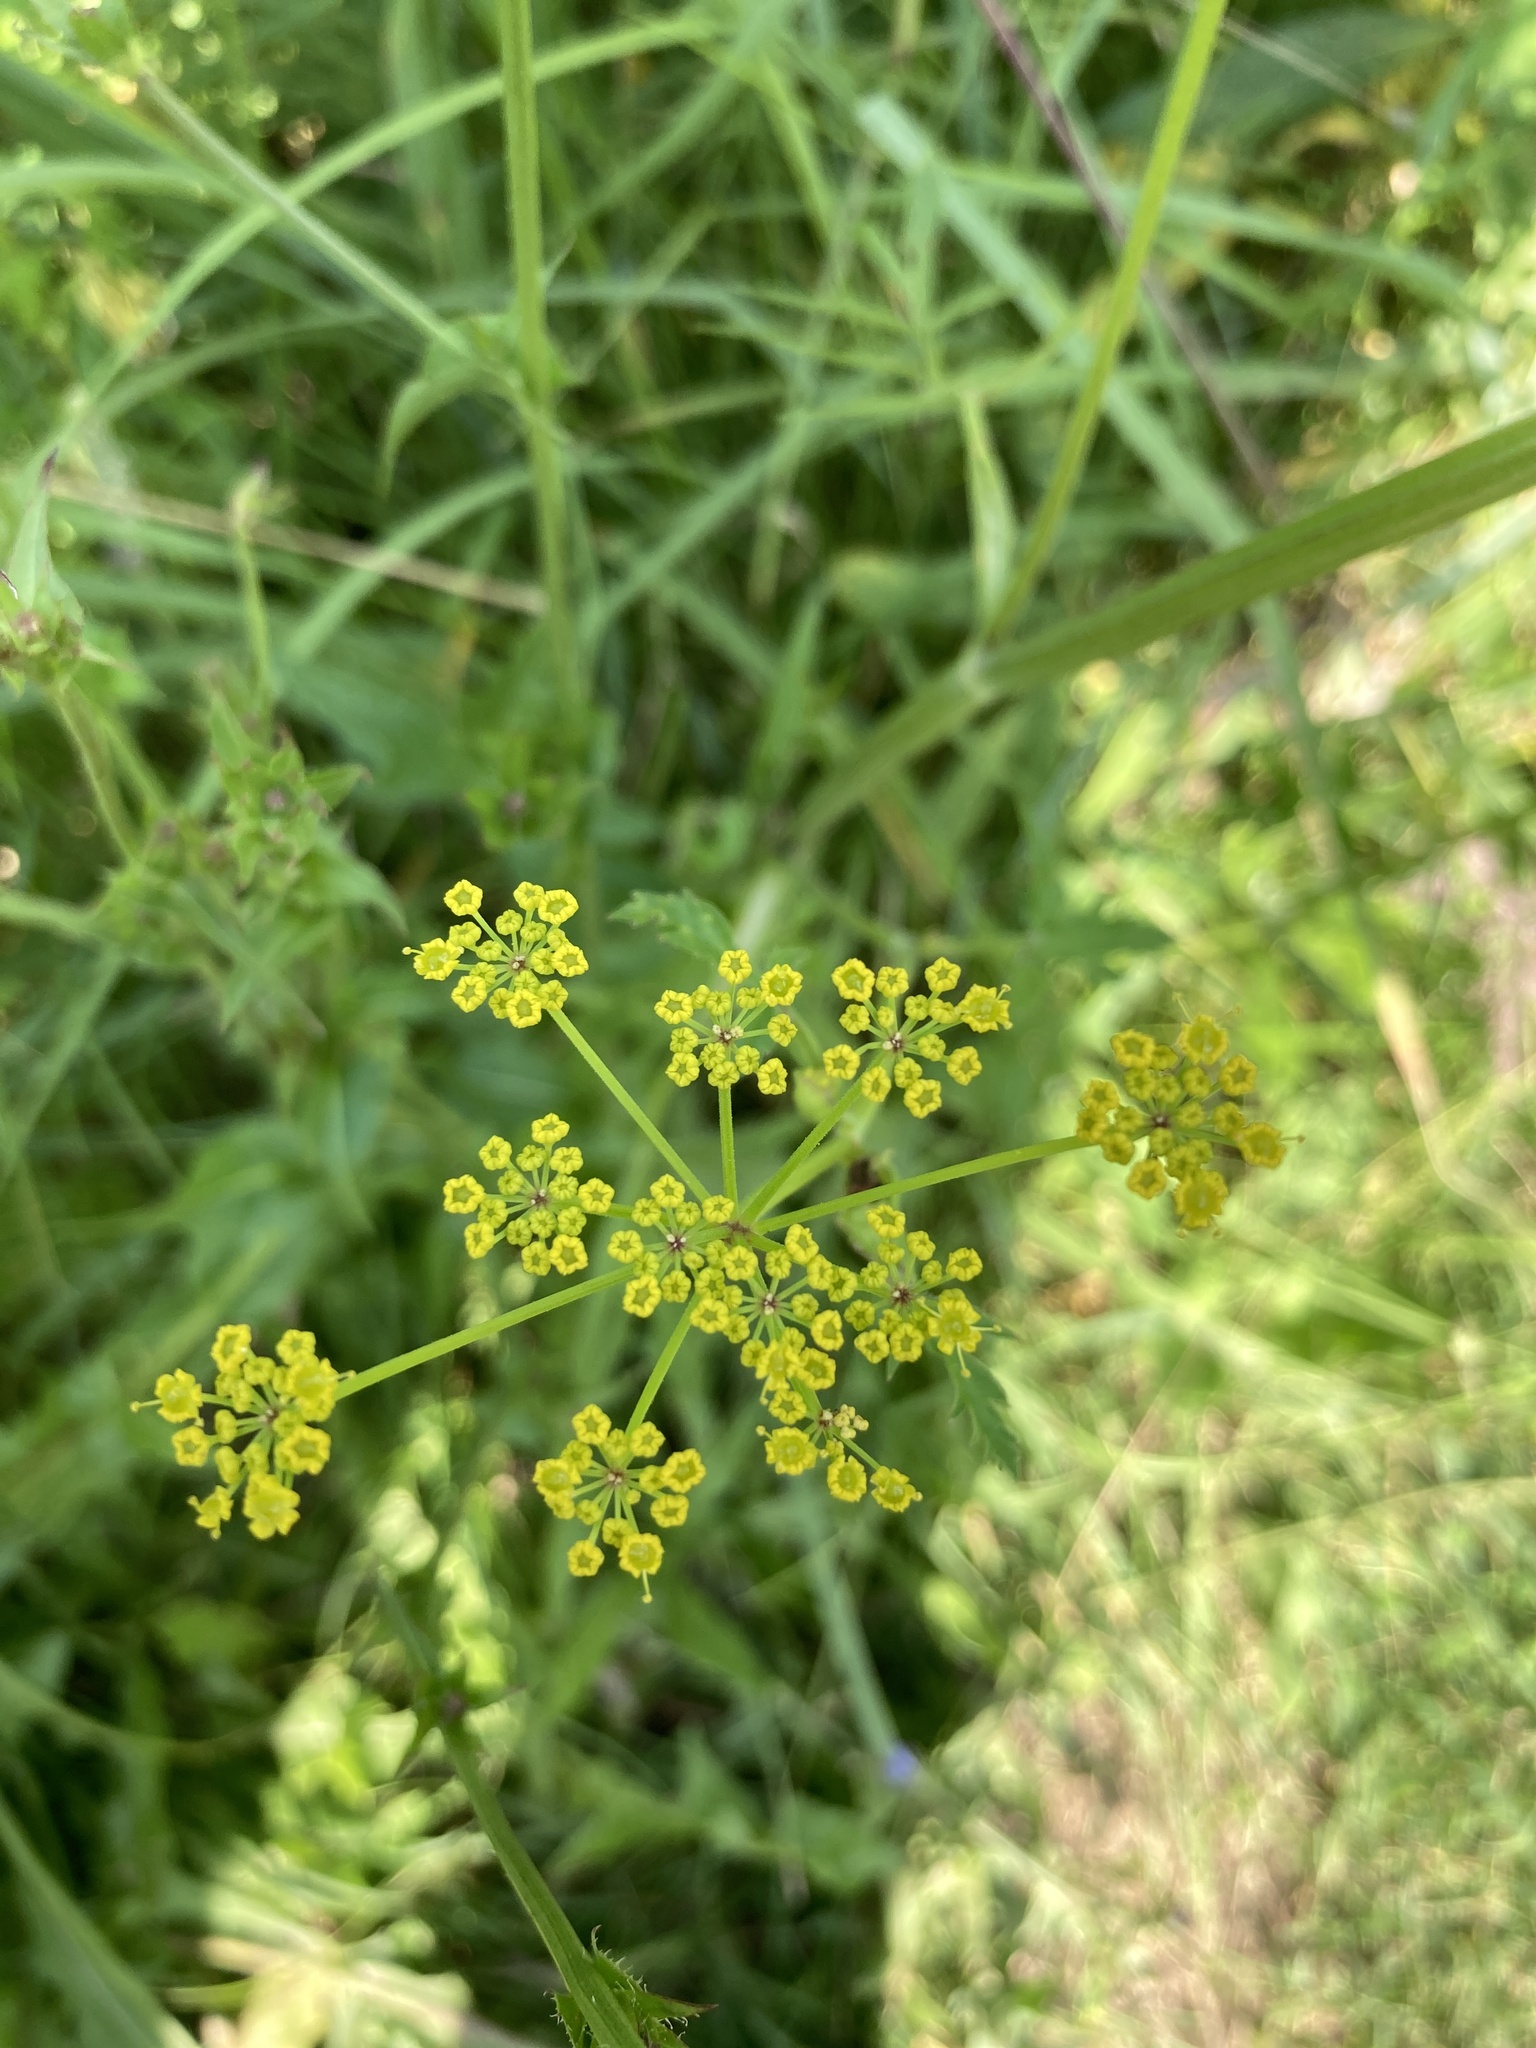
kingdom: Plantae
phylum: Tracheophyta
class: Magnoliopsida
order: Apiales
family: Apiaceae
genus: Pastinaca
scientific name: Pastinaca sativa
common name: Wild parsnip
